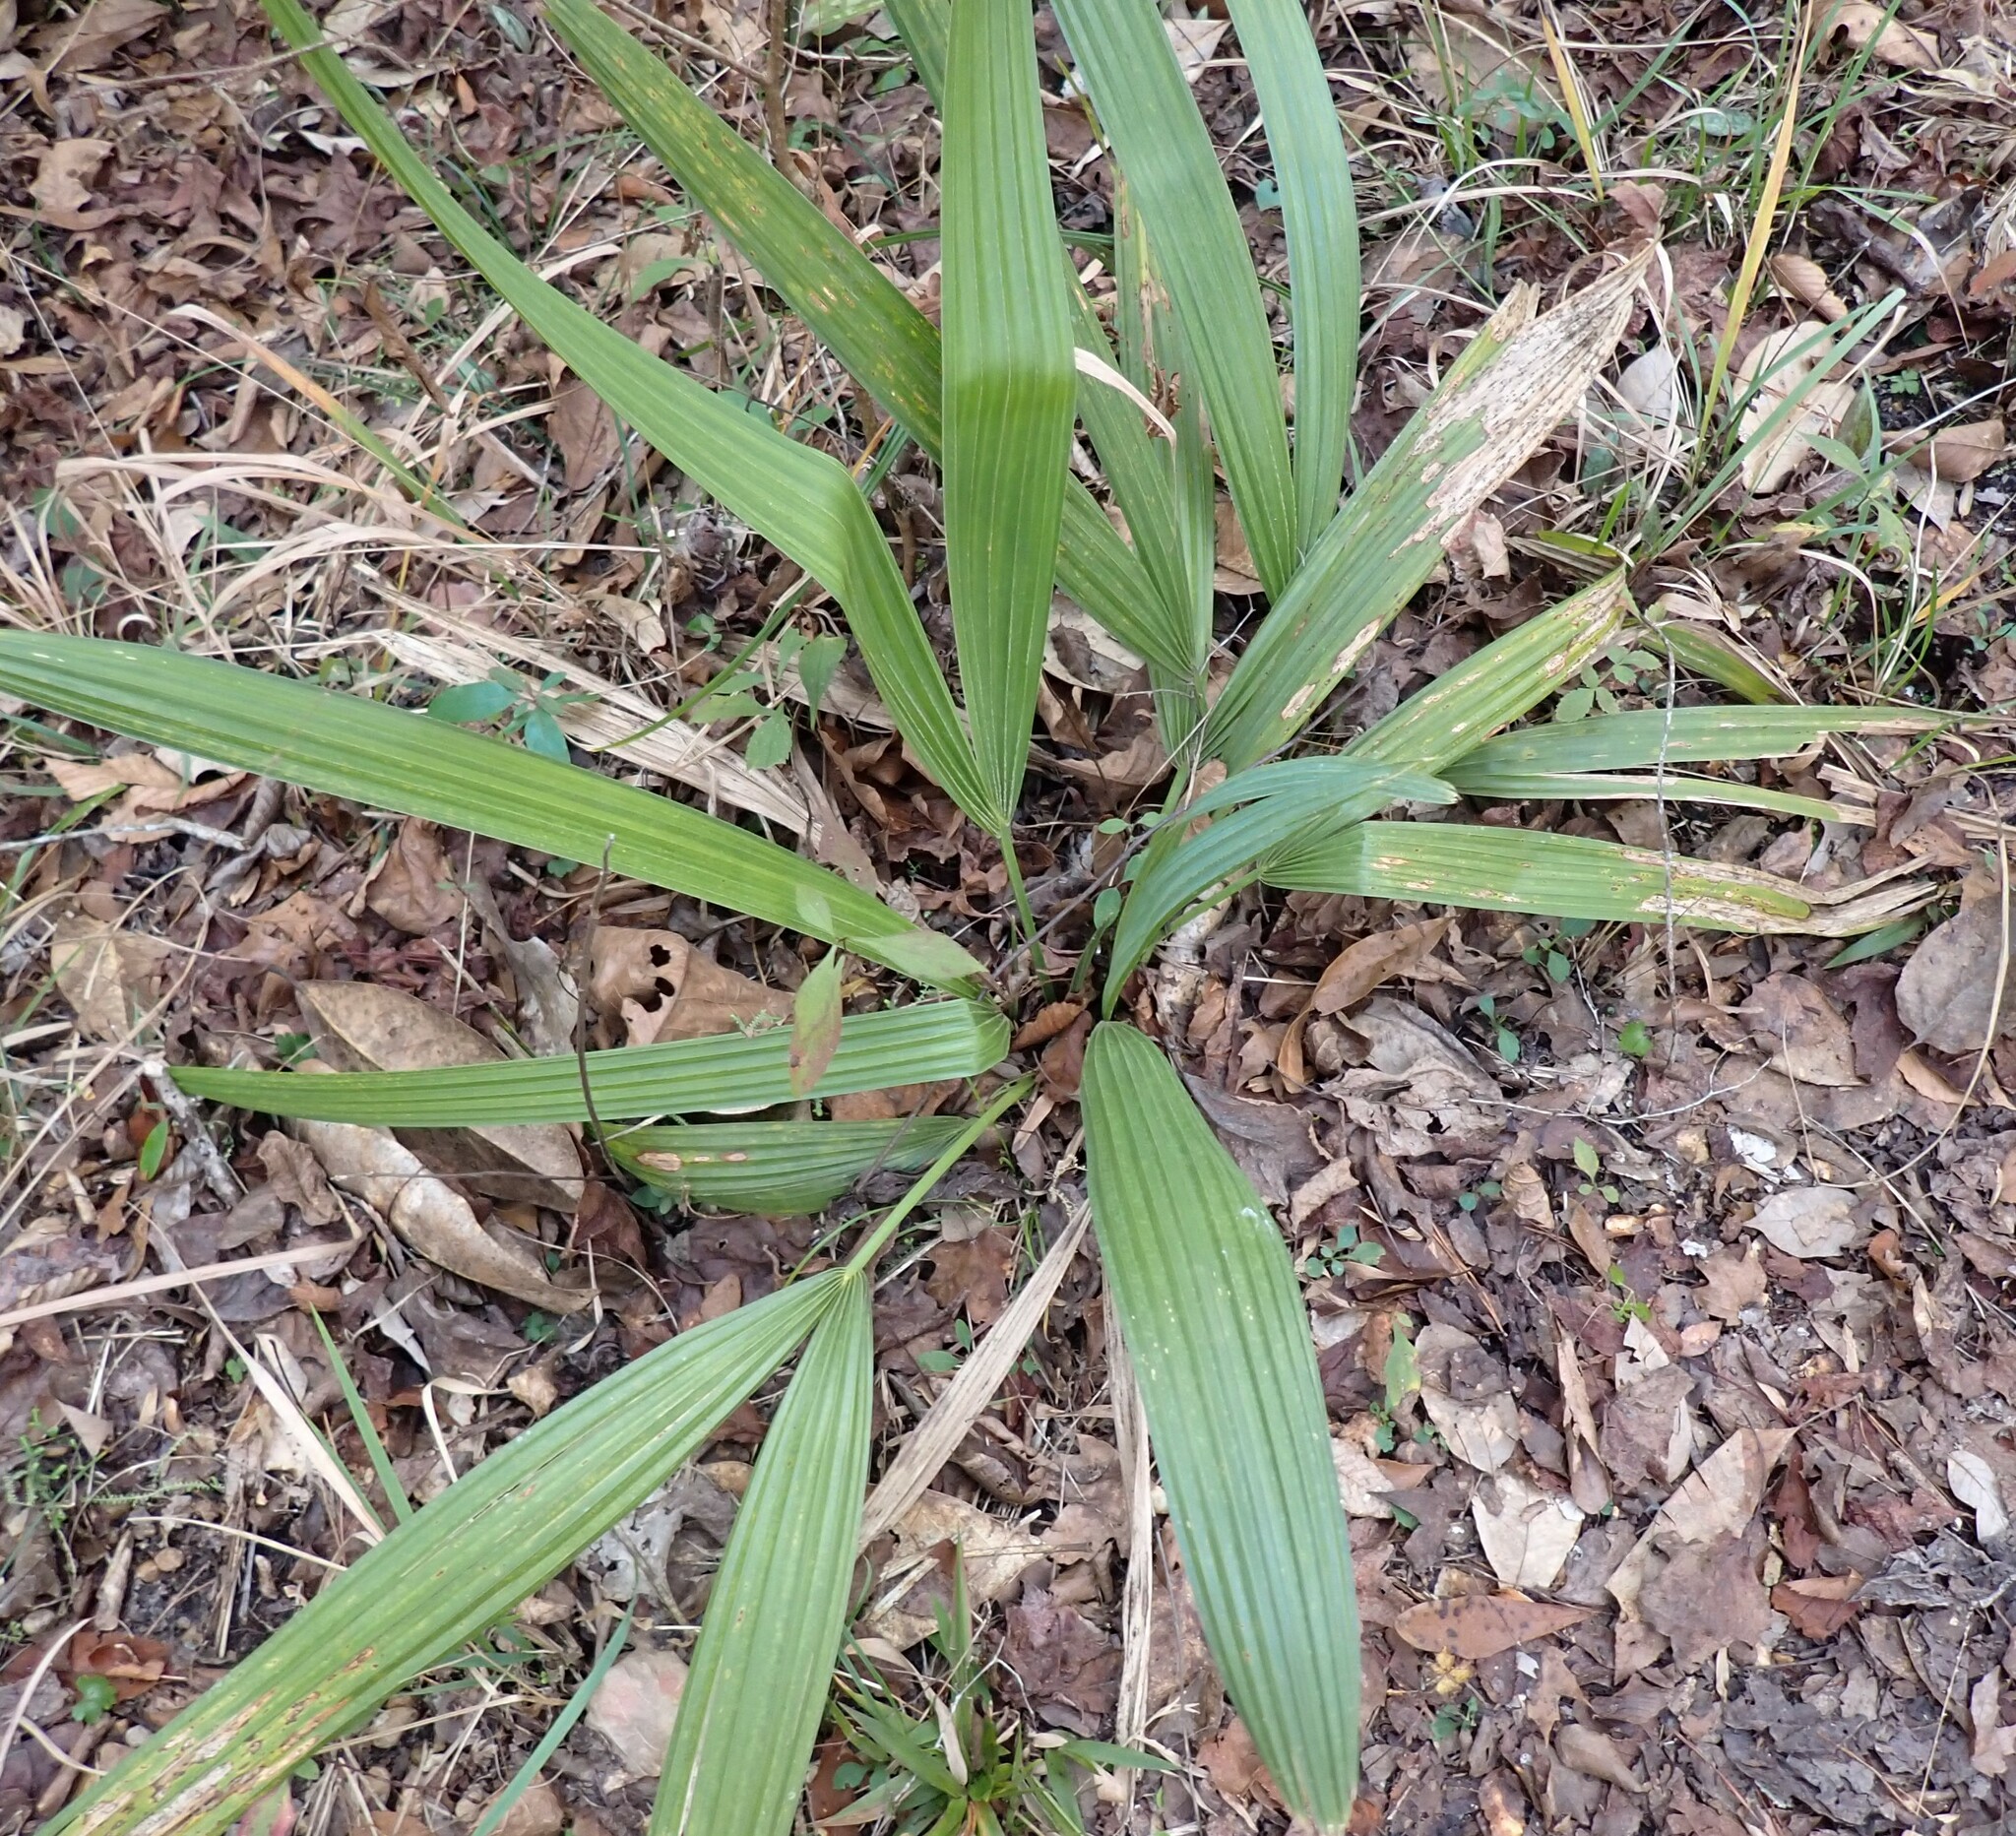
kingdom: Plantae
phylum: Tracheophyta
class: Liliopsida
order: Arecales
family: Arecaceae
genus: Sabal
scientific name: Sabal minor
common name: Dwarf palmetto
